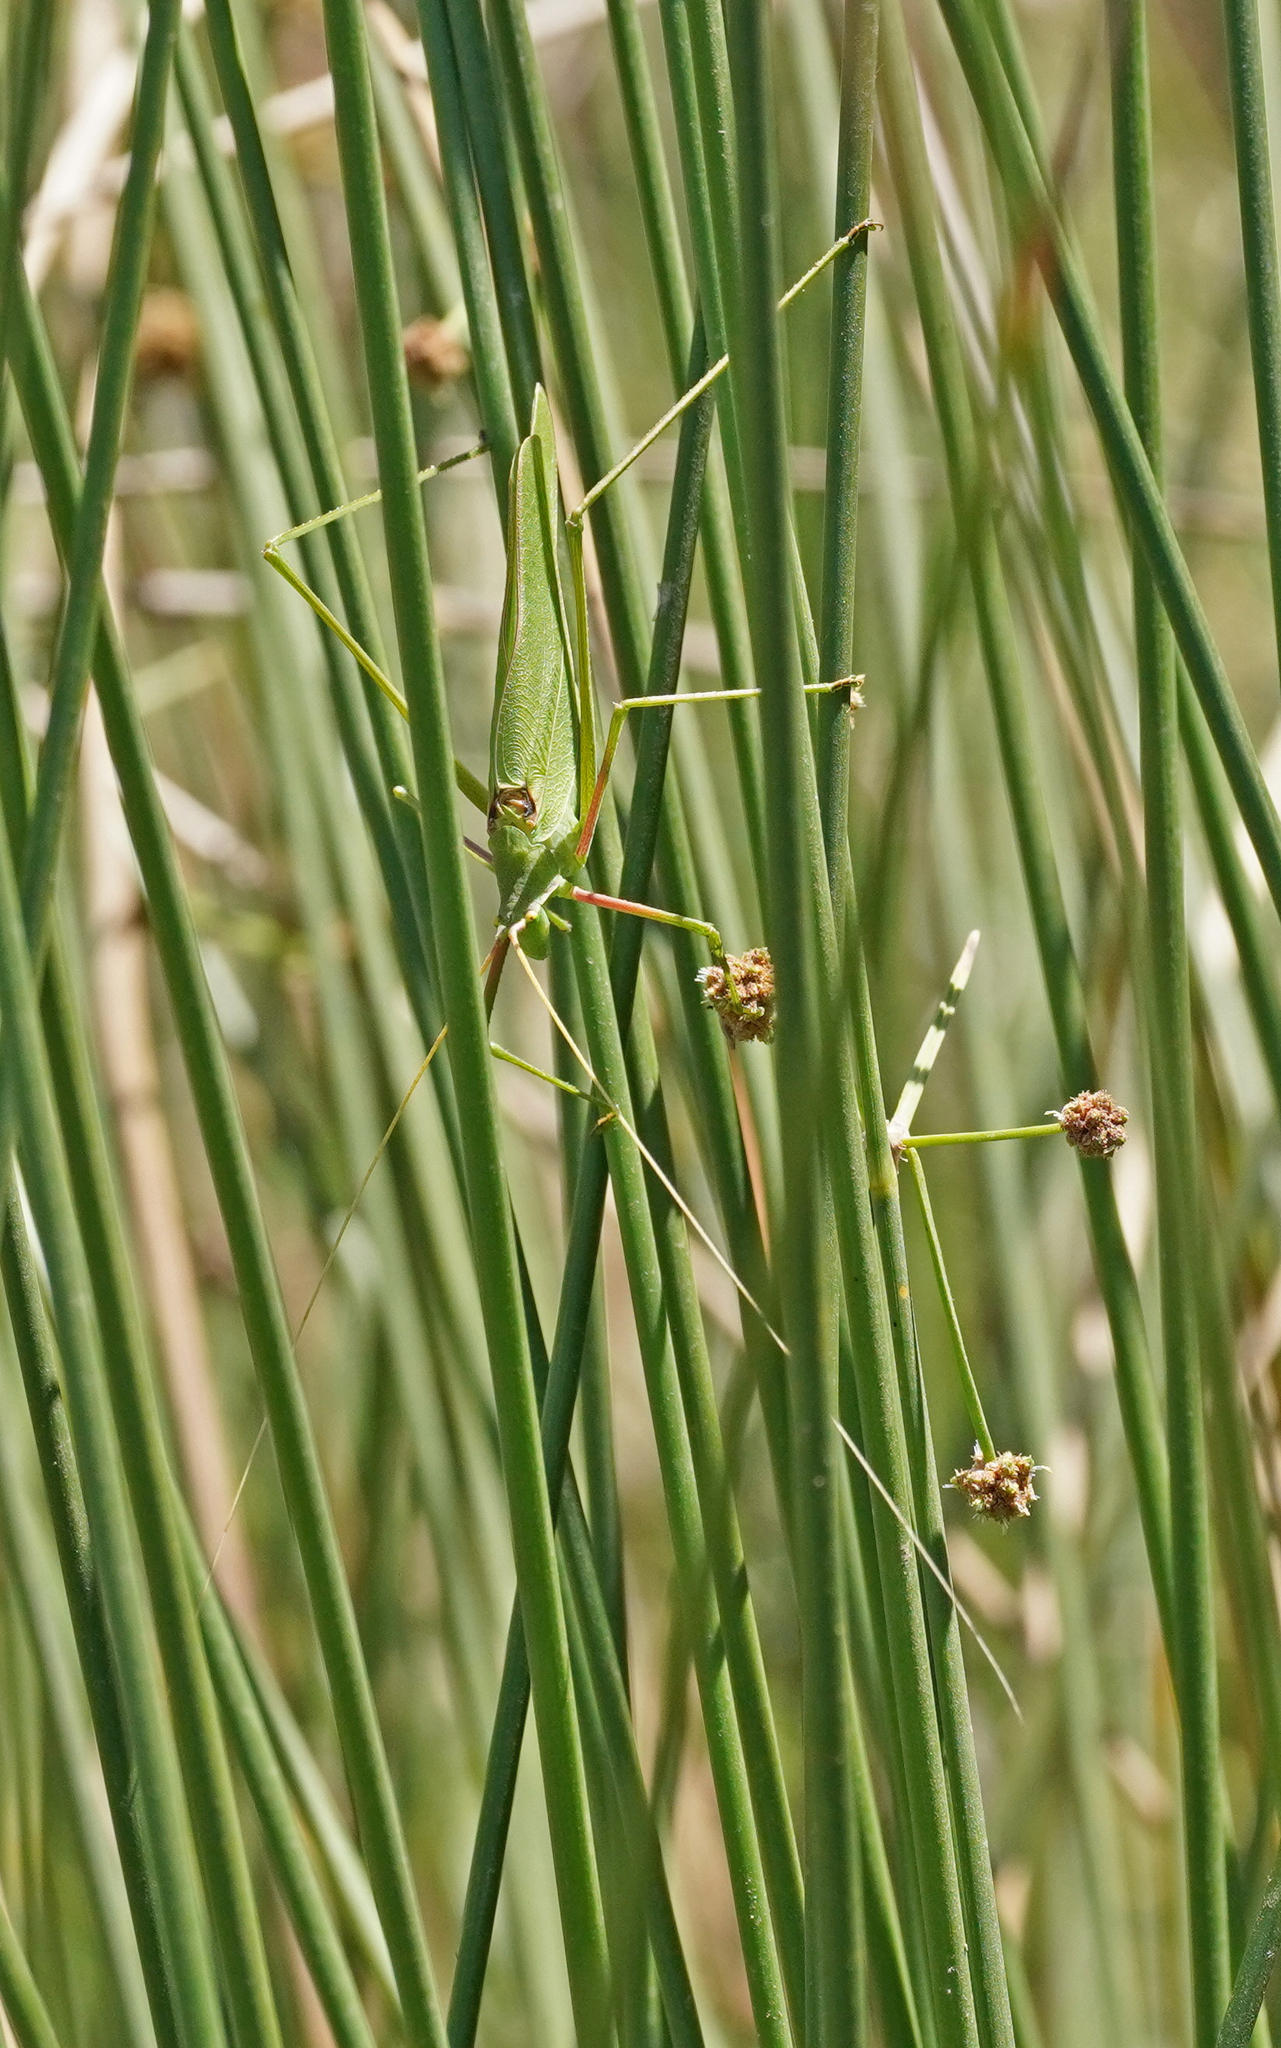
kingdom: Animalia
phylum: Arthropoda
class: Insecta
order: Orthoptera
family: Tettigoniidae
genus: Acrometopa
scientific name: Acrometopa italica
